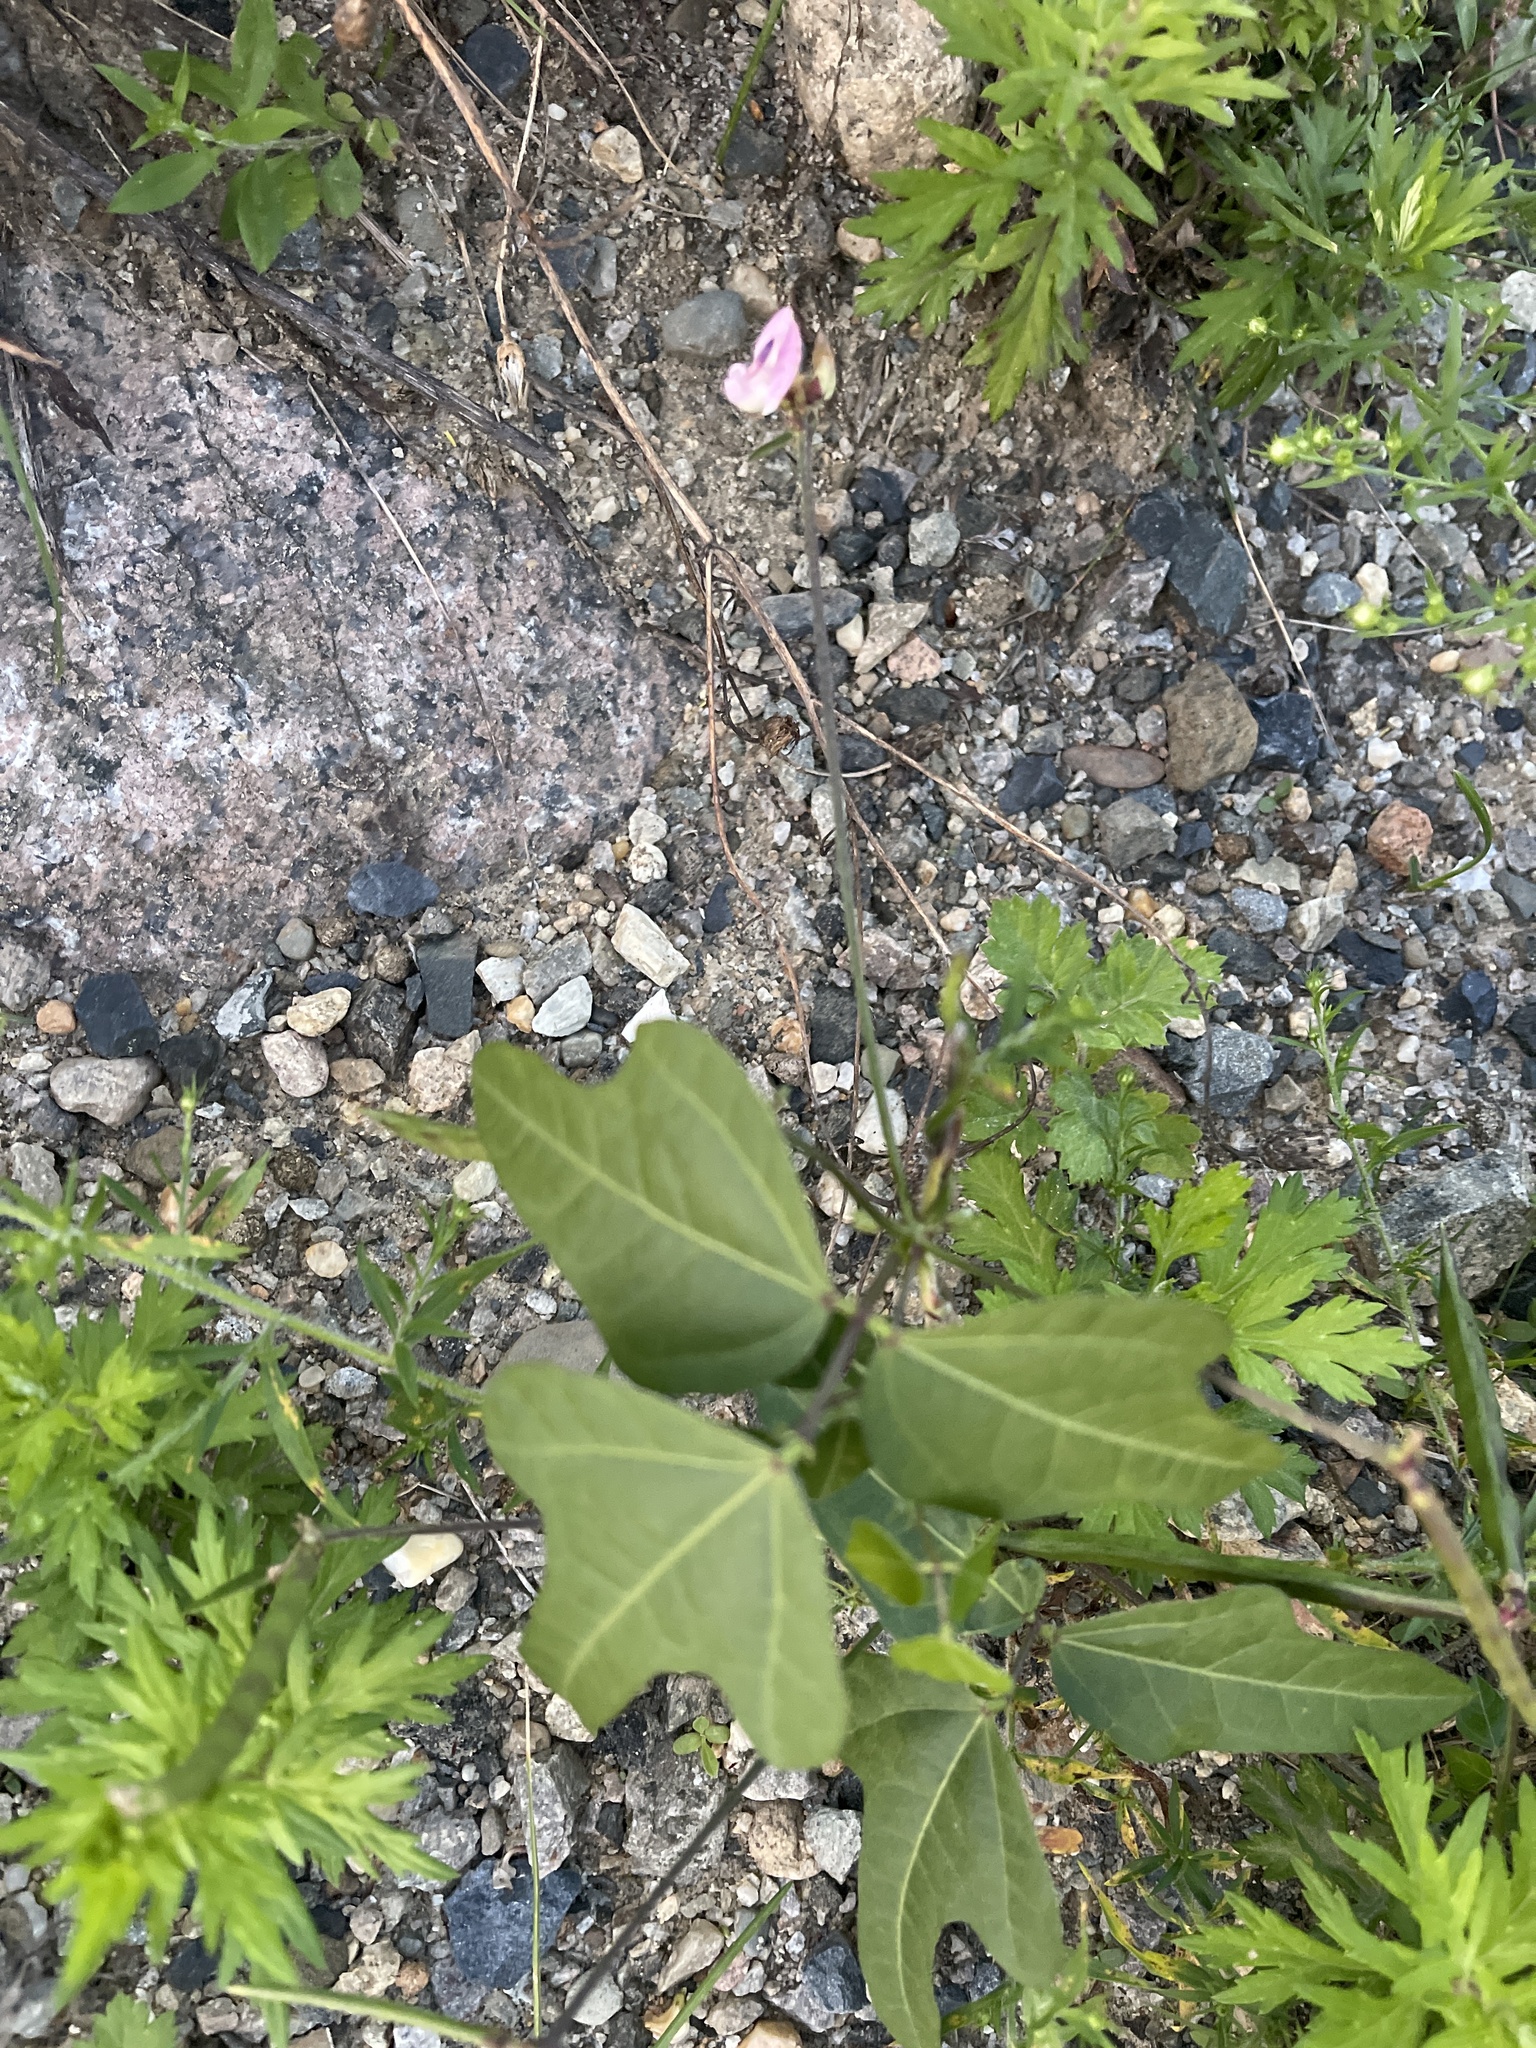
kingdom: Plantae
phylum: Tracheophyta
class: Magnoliopsida
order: Fabales
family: Fabaceae
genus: Strophostyles
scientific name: Strophostyles helvola
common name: Trailing wild bean
